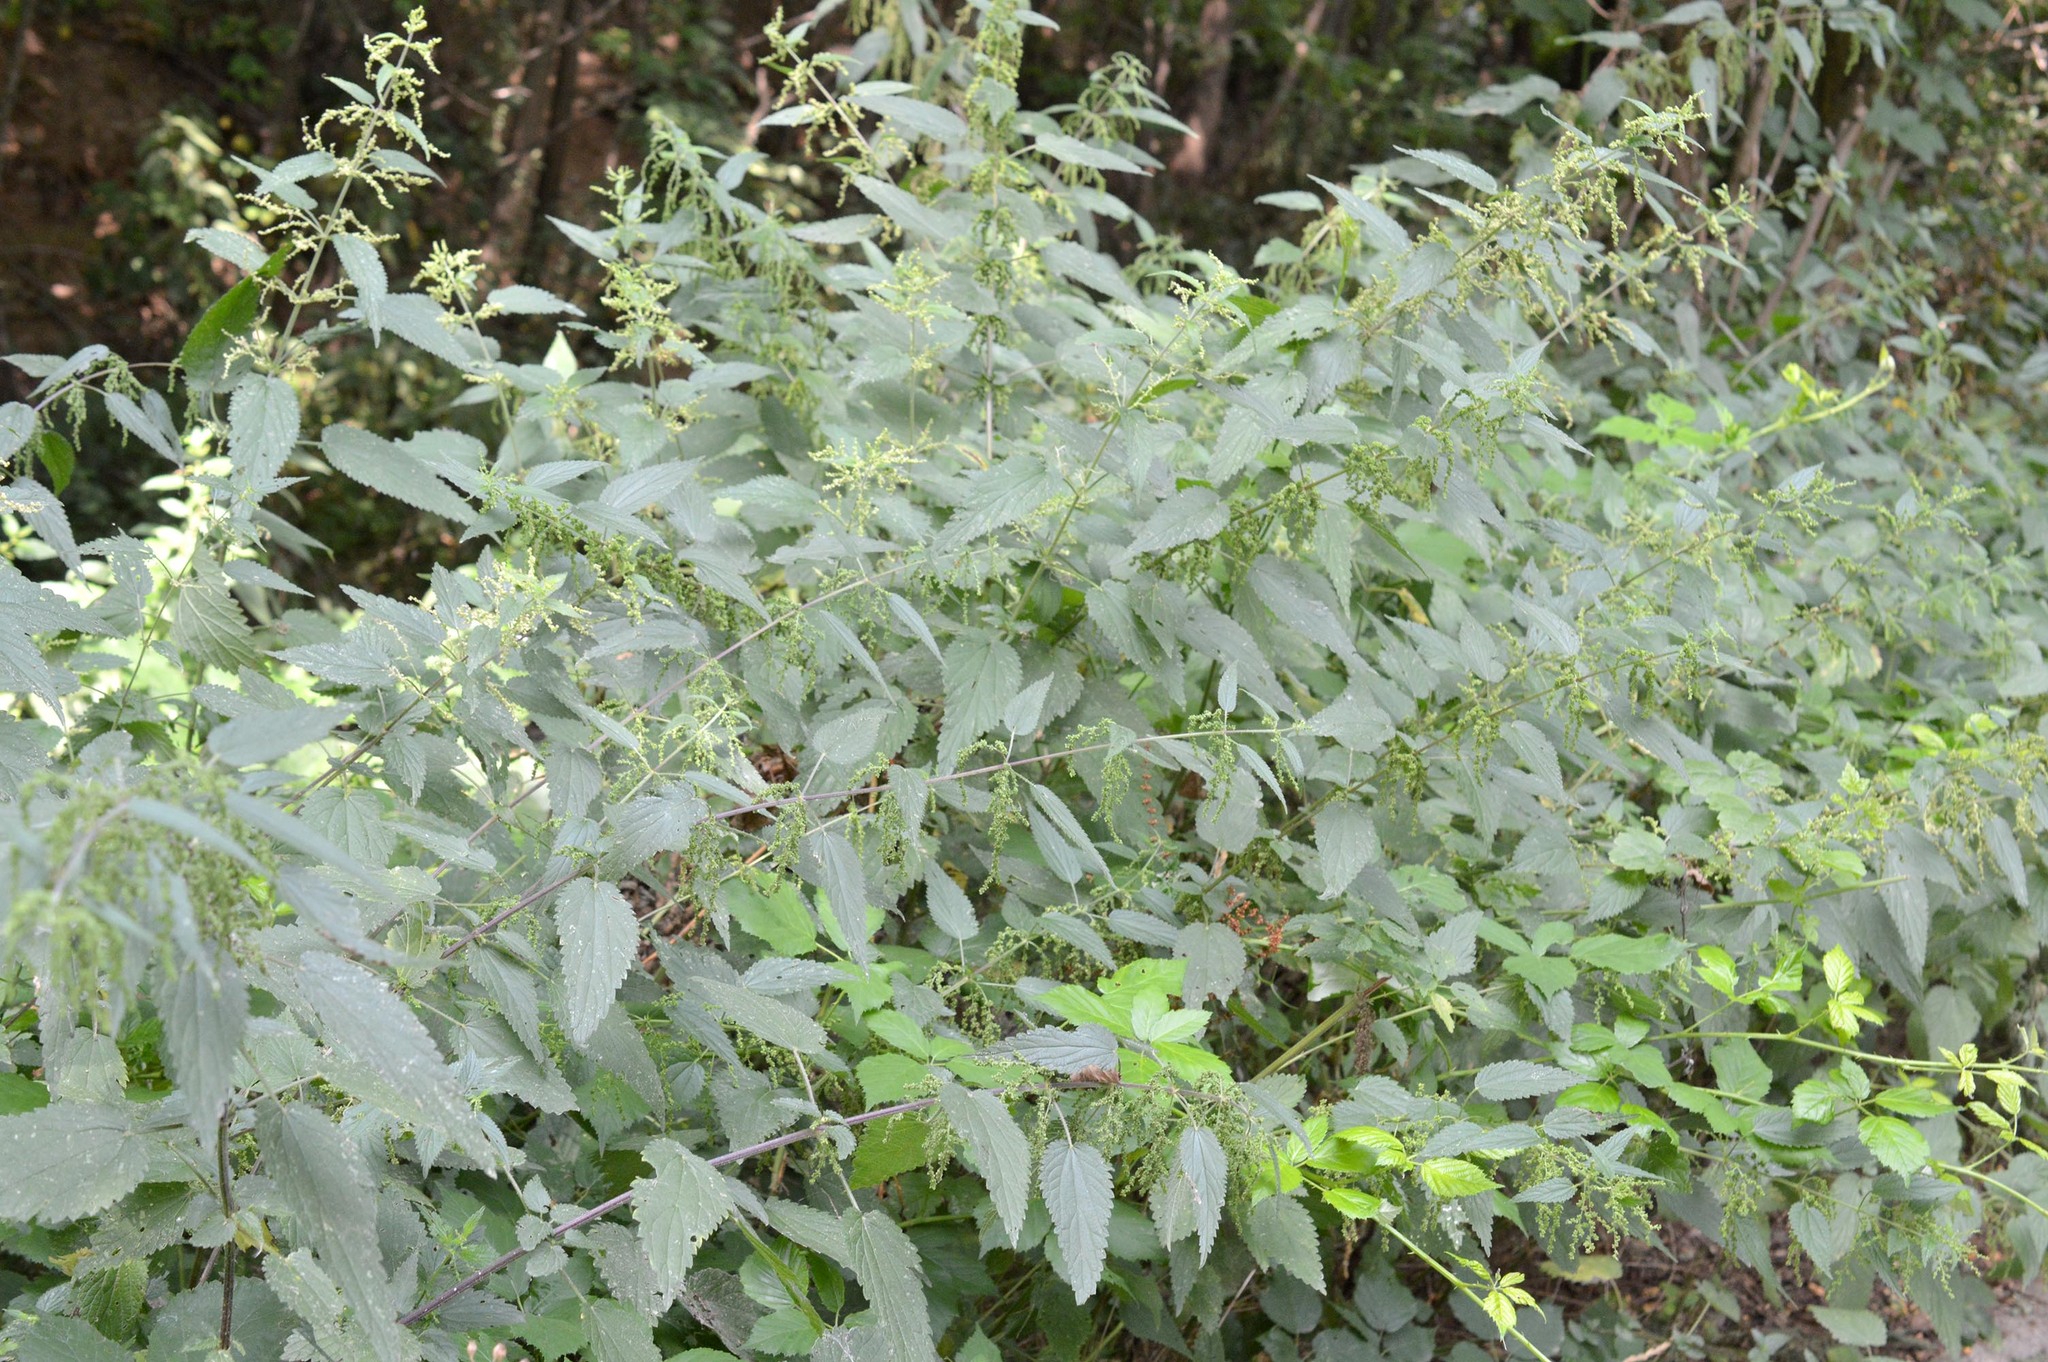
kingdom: Plantae
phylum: Tracheophyta
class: Magnoliopsida
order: Rosales
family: Urticaceae
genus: Urtica
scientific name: Urtica dioica
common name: Common nettle
